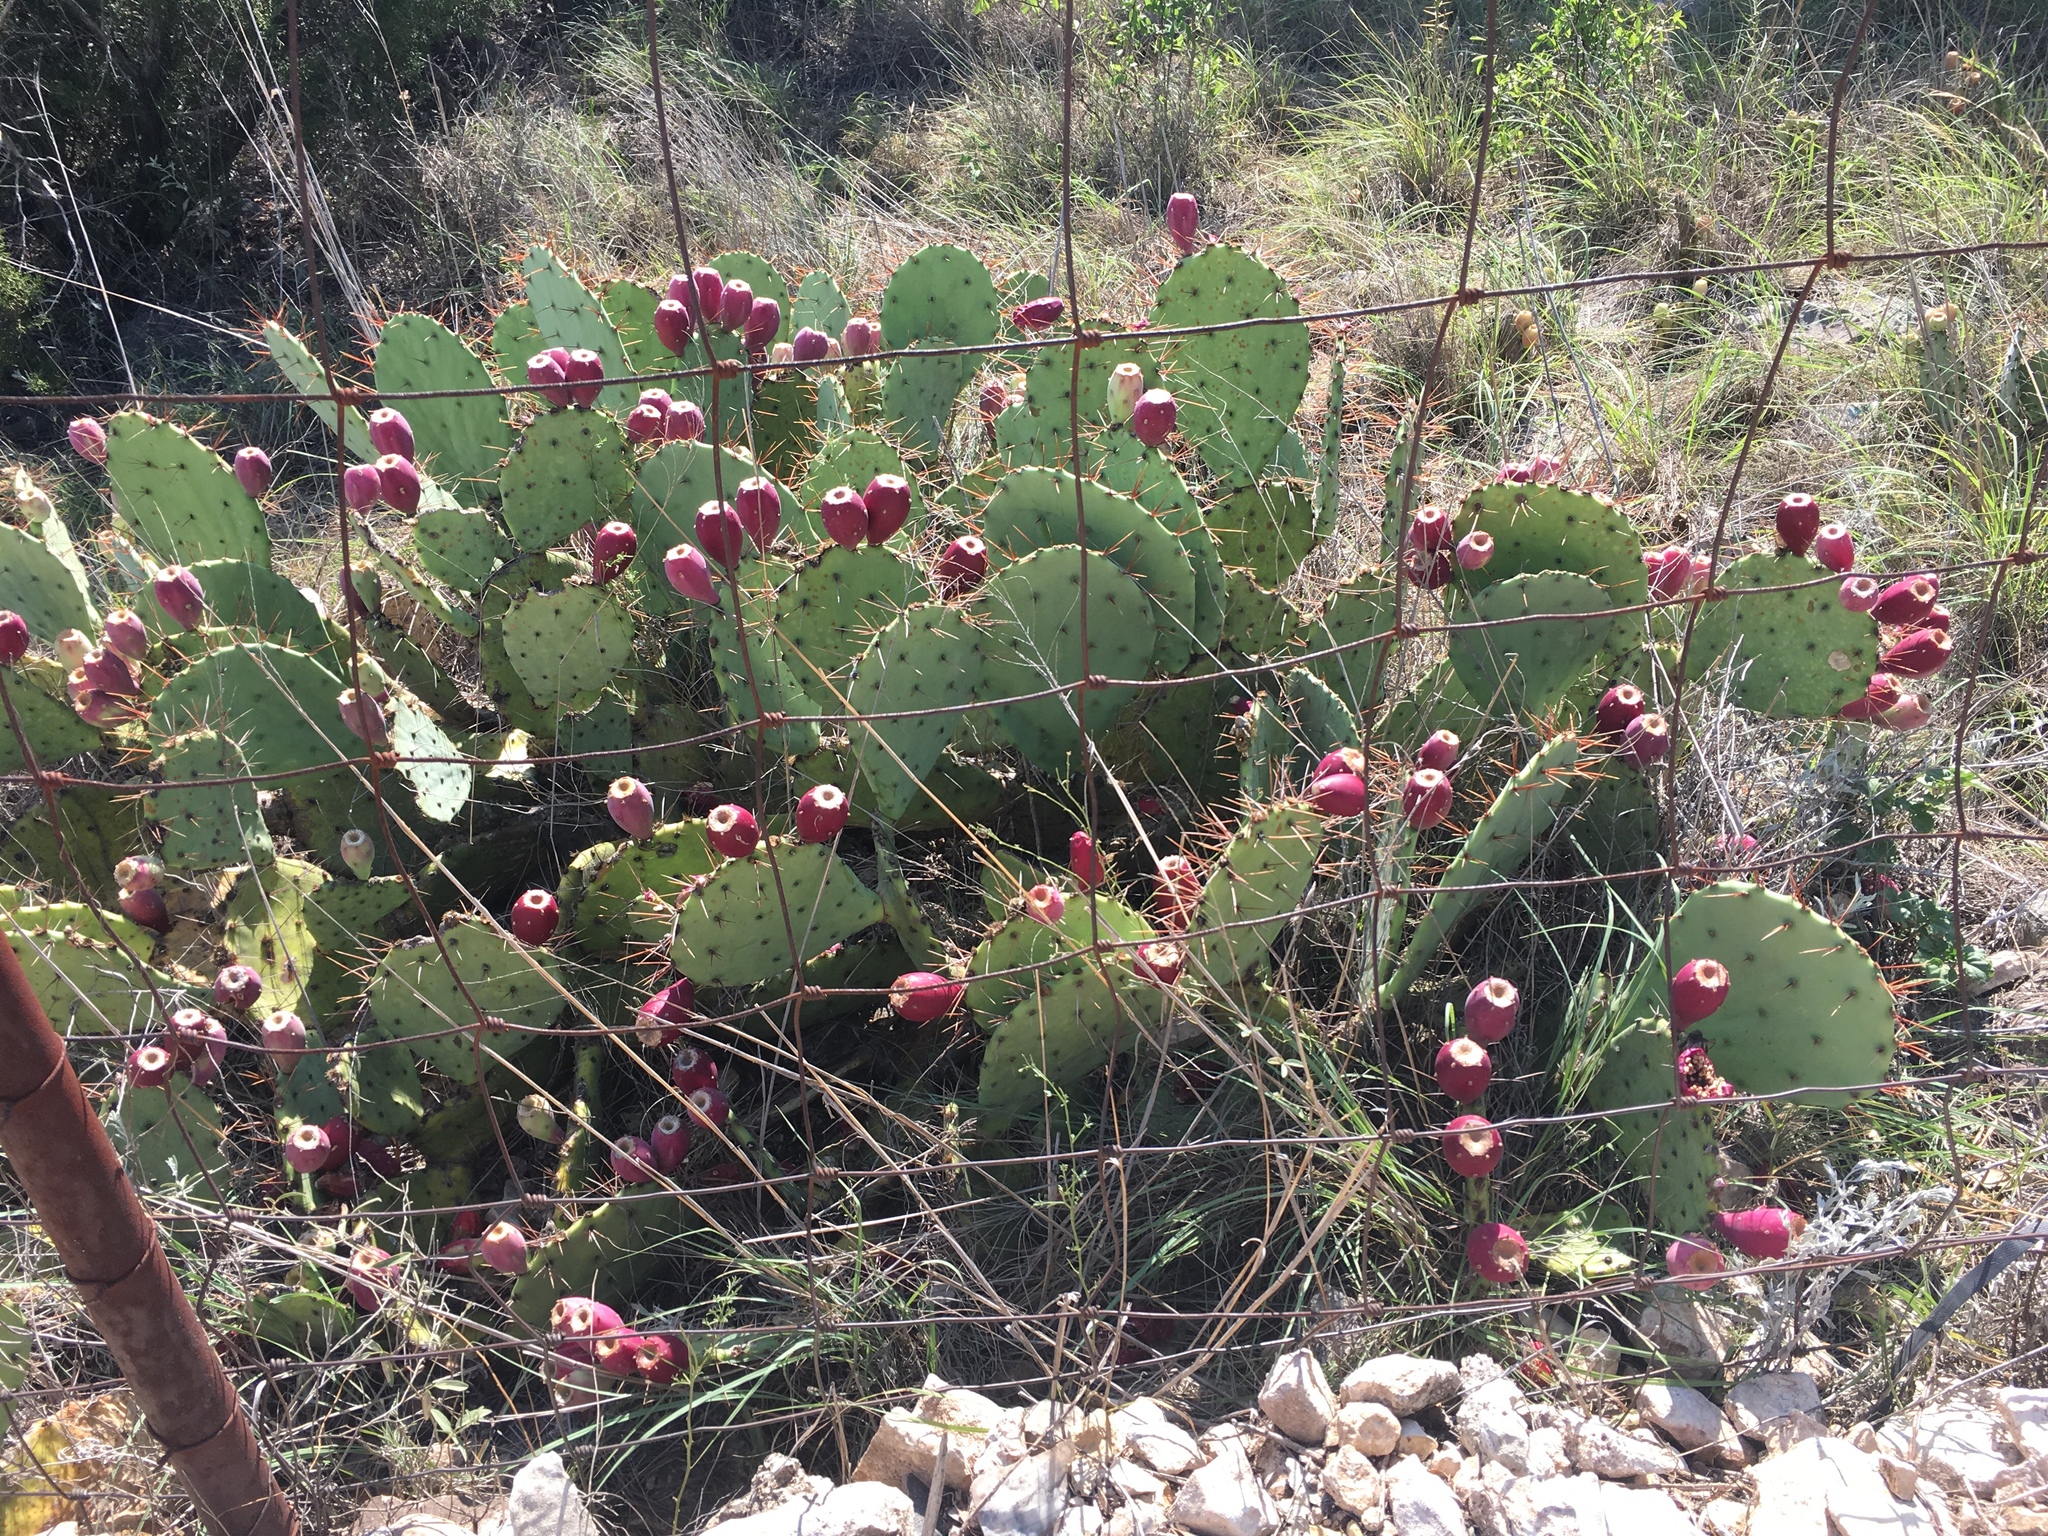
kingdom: Plantae
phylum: Tracheophyta
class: Magnoliopsida
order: Caryophyllales
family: Cactaceae
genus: Opuntia
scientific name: Opuntia engelmannii
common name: Cactus-apple
